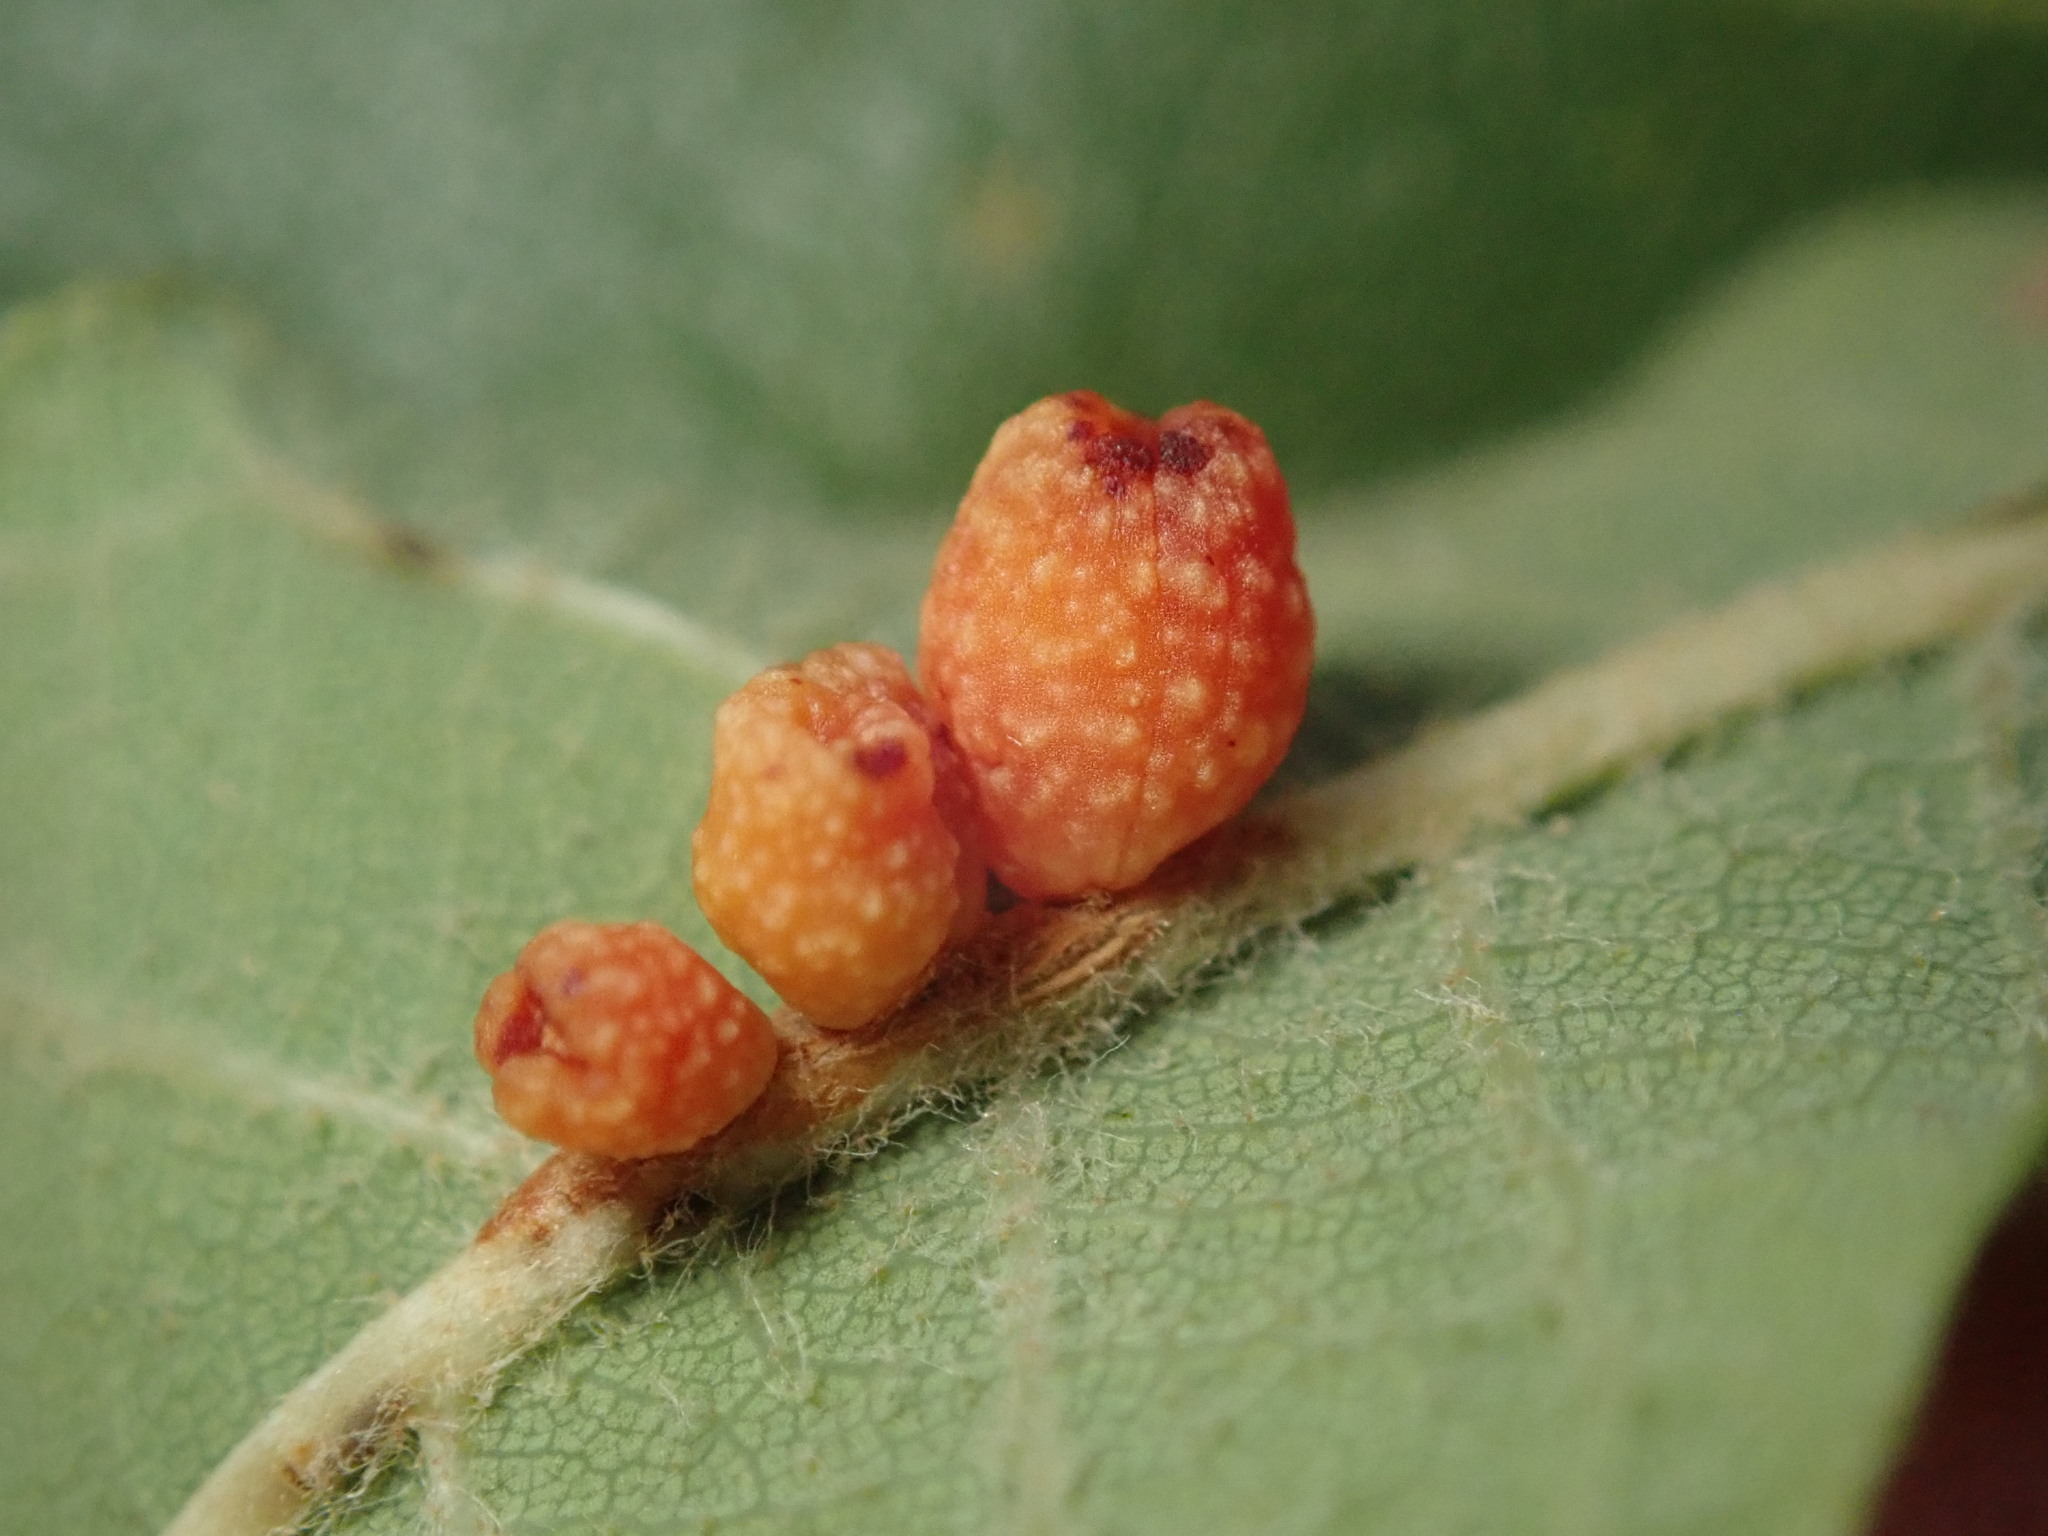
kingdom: Animalia
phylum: Arthropoda
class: Insecta
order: Hymenoptera
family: Cynipidae
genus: Callirhytis
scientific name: Callirhytis
